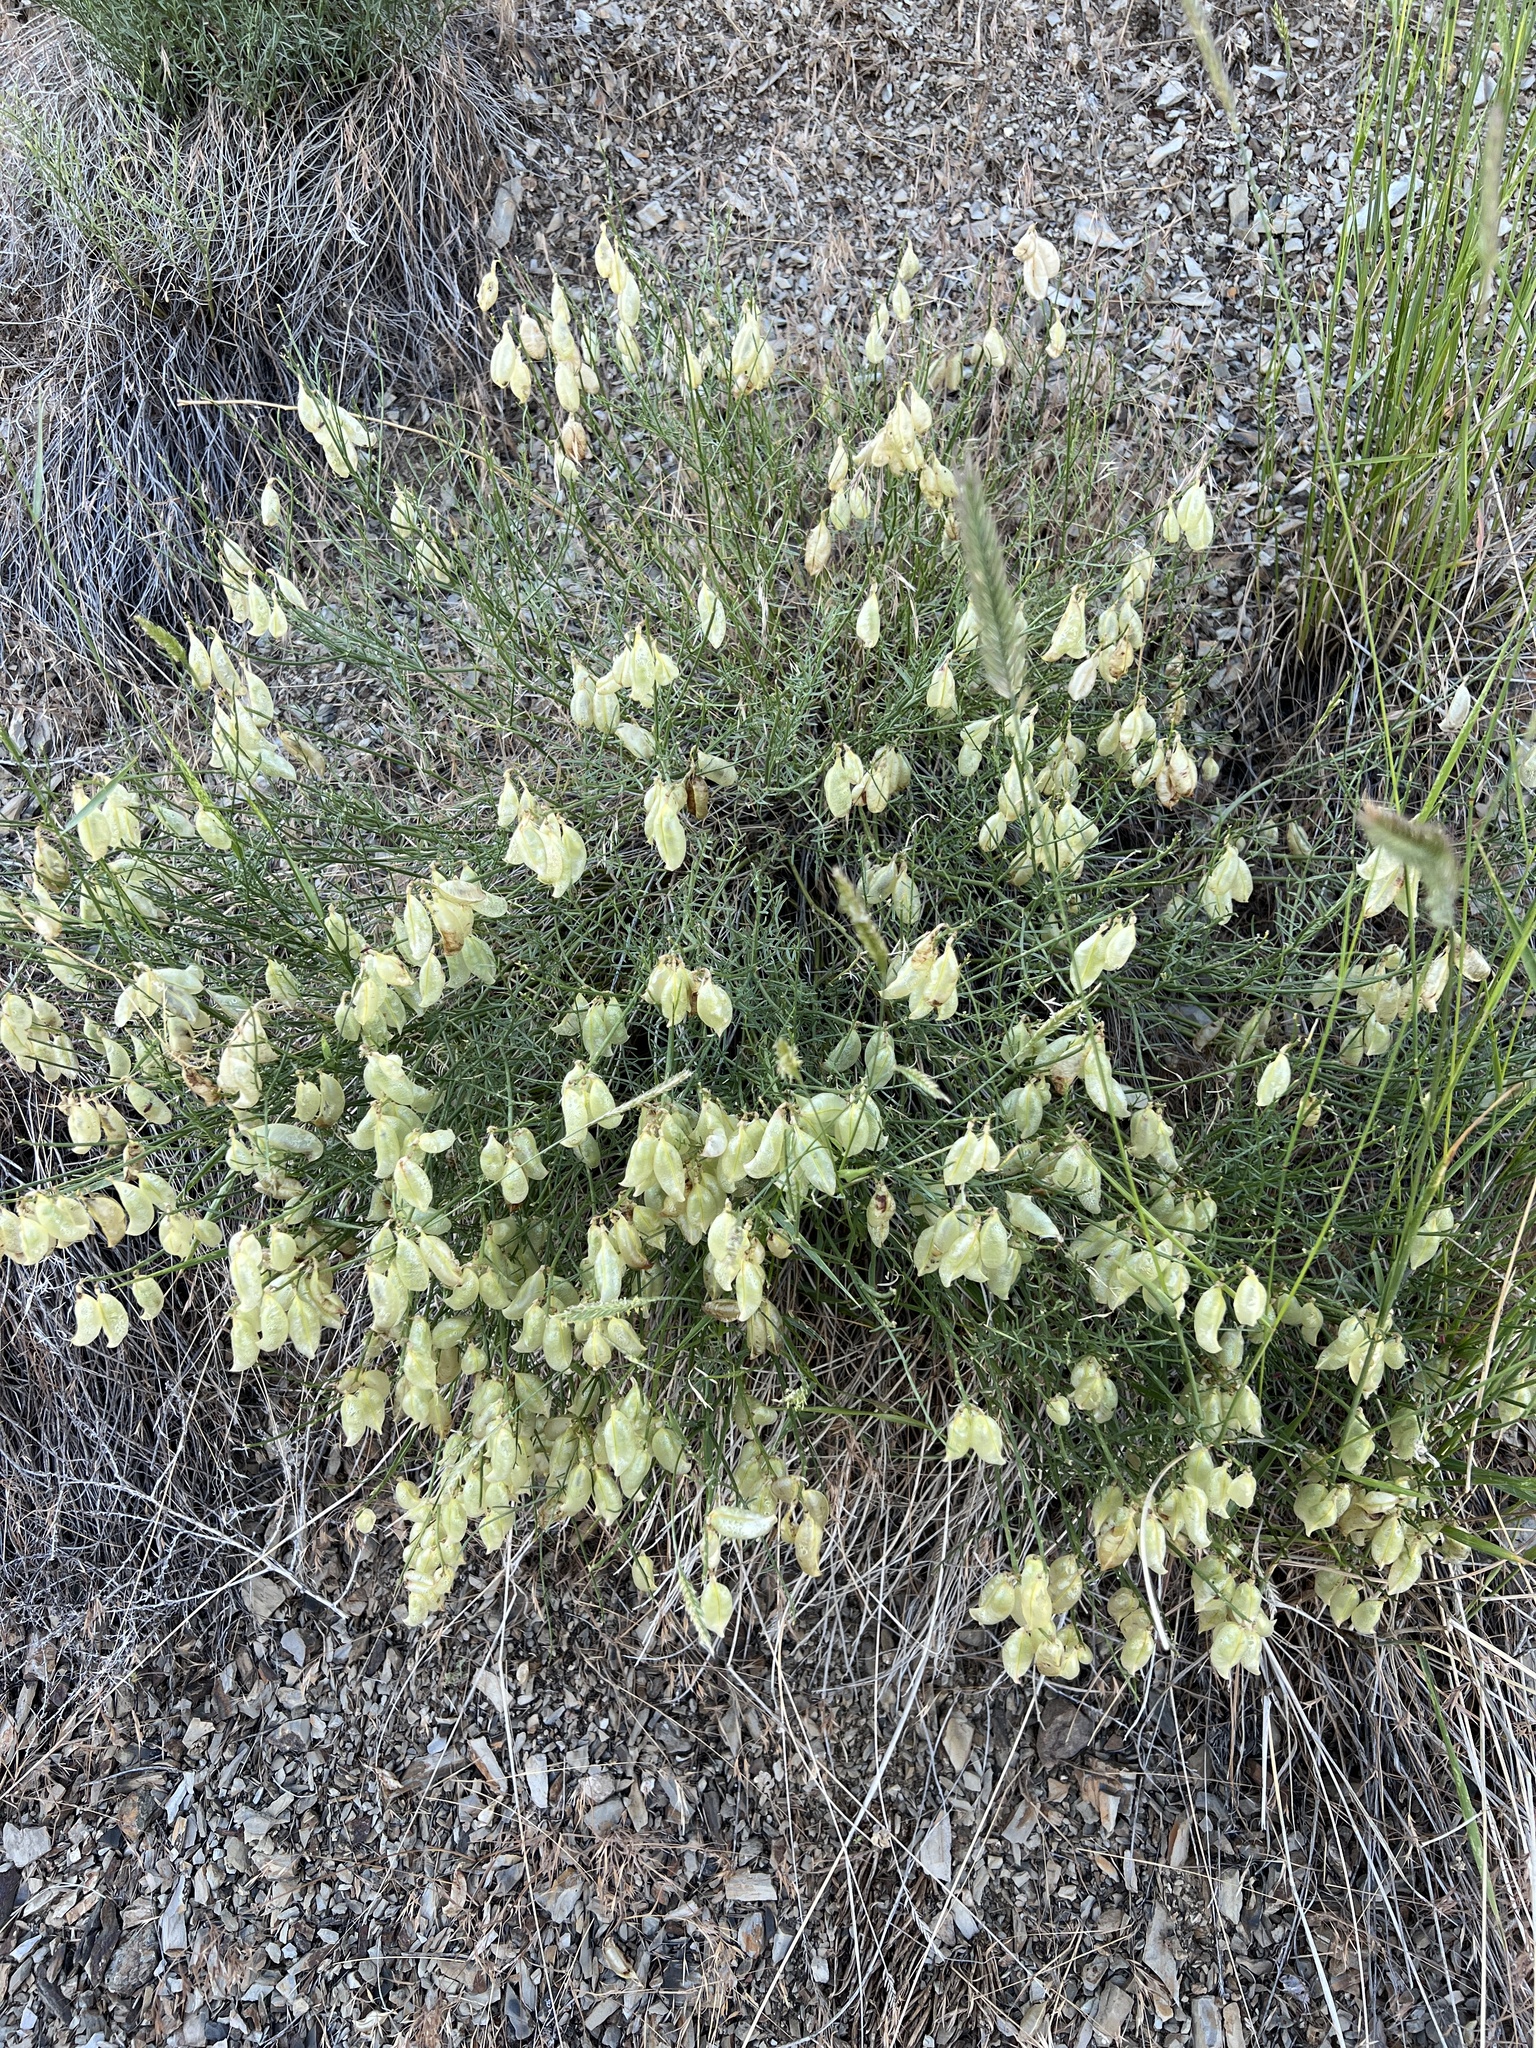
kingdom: Plantae
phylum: Tracheophyta
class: Magnoliopsida
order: Fabales
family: Fabaceae
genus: Astragalus
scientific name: Astragalus cusickii
